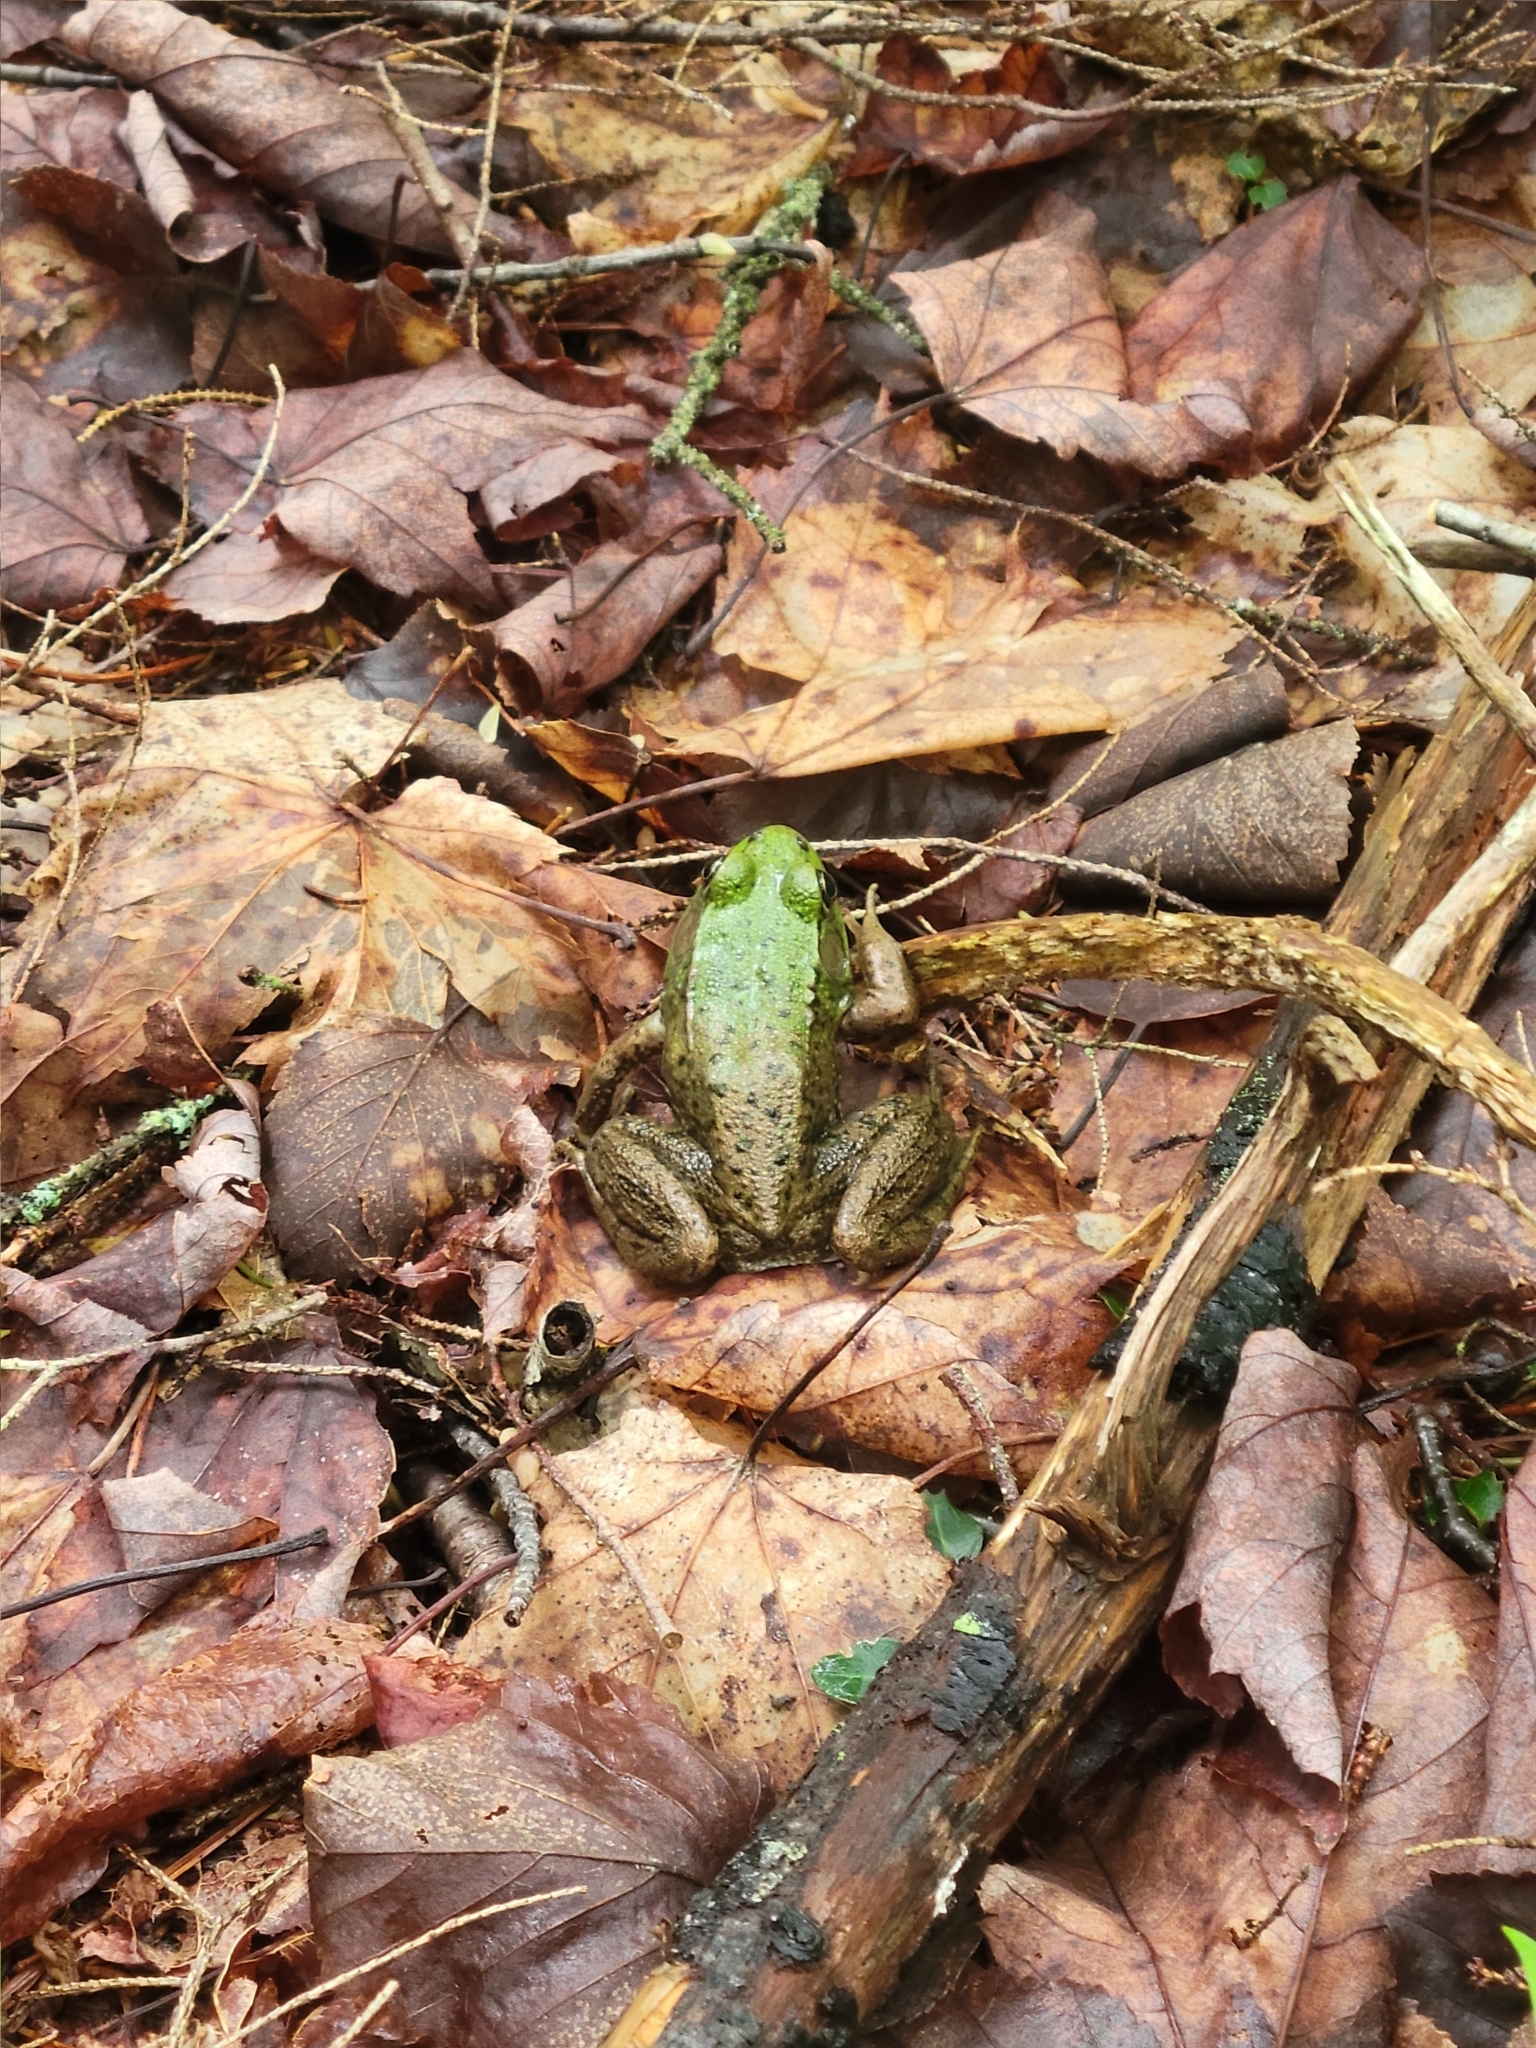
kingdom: Animalia
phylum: Chordata
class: Amphibia
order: Anura
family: Ranidae
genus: Lithobates
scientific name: Lithobates clamitans
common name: Green frog
